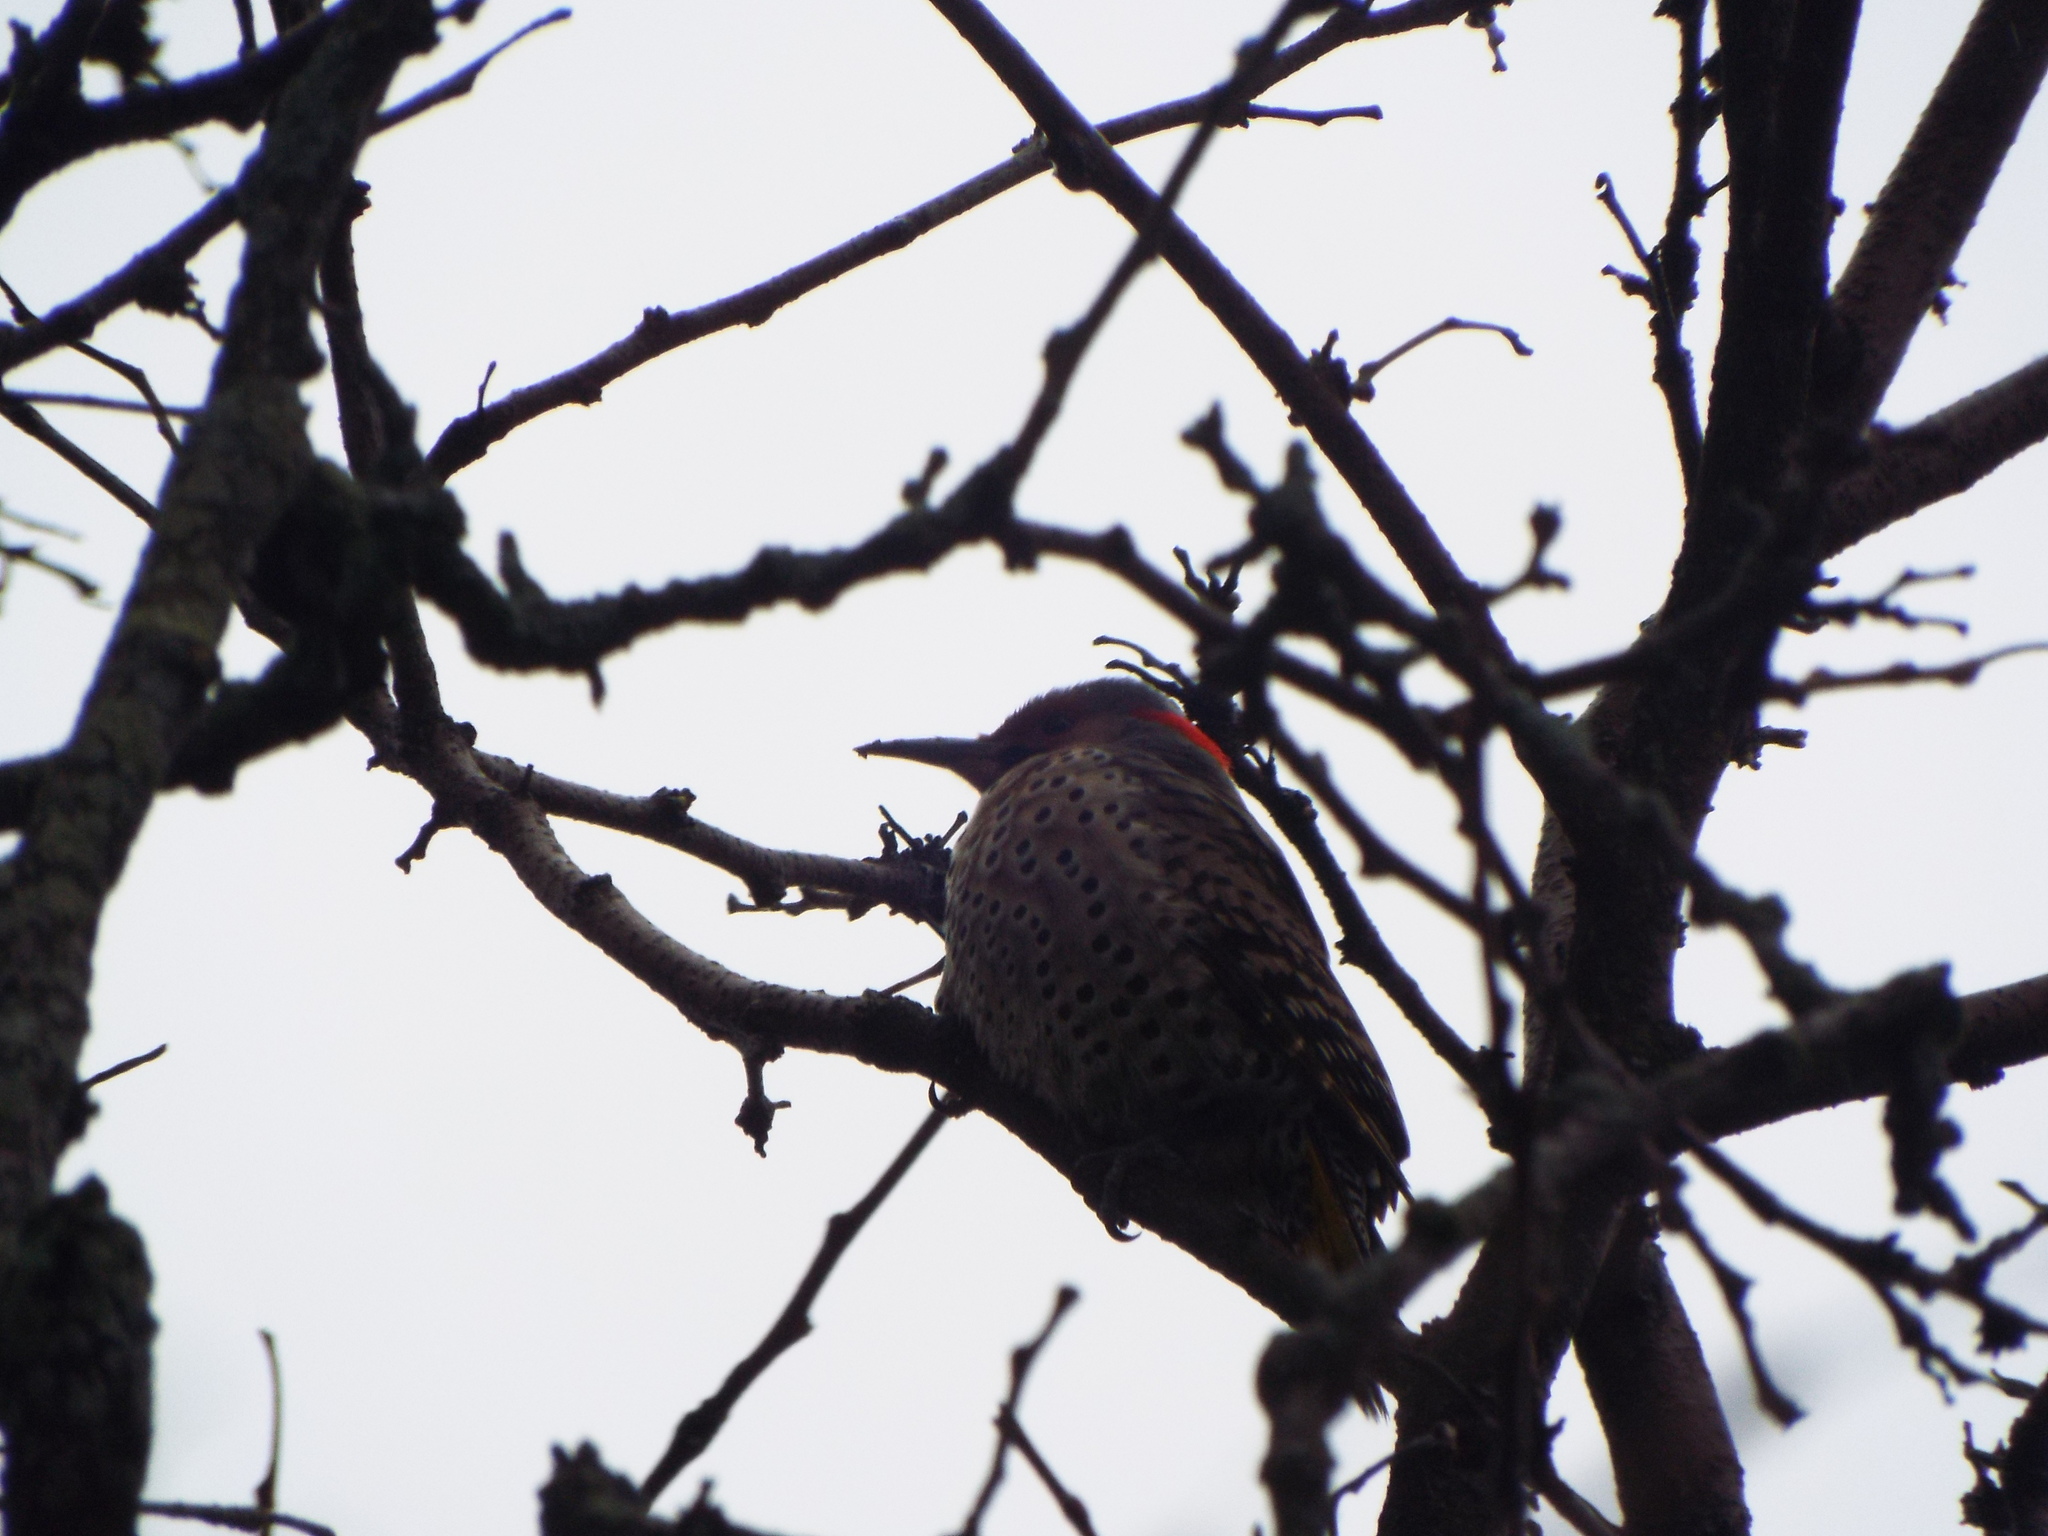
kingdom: Animalia
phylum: Chordata
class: Aves
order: Piciformes
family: Picidae
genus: Colaptes
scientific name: Colaptes auratus
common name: Northern flicker
